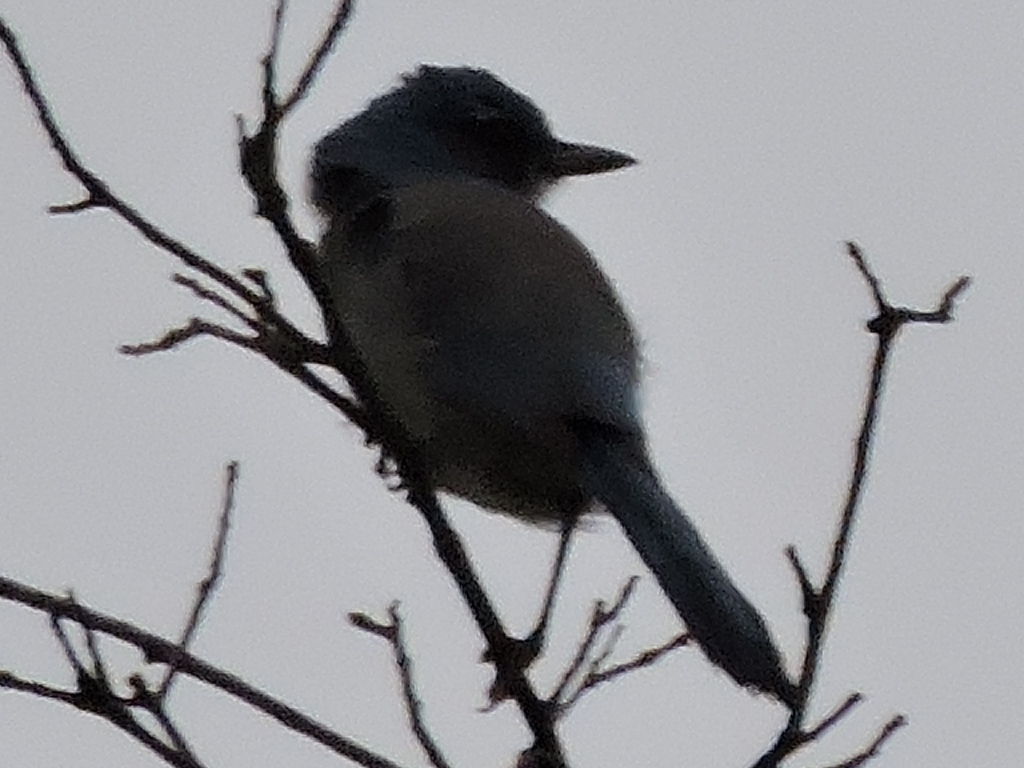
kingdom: Animalia
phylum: Chordata
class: Aves
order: Passeriformes
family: Corvidae
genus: Aphelocoma
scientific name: Aphelocoma woodhouseii
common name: Woodhouse's scrub-jay
